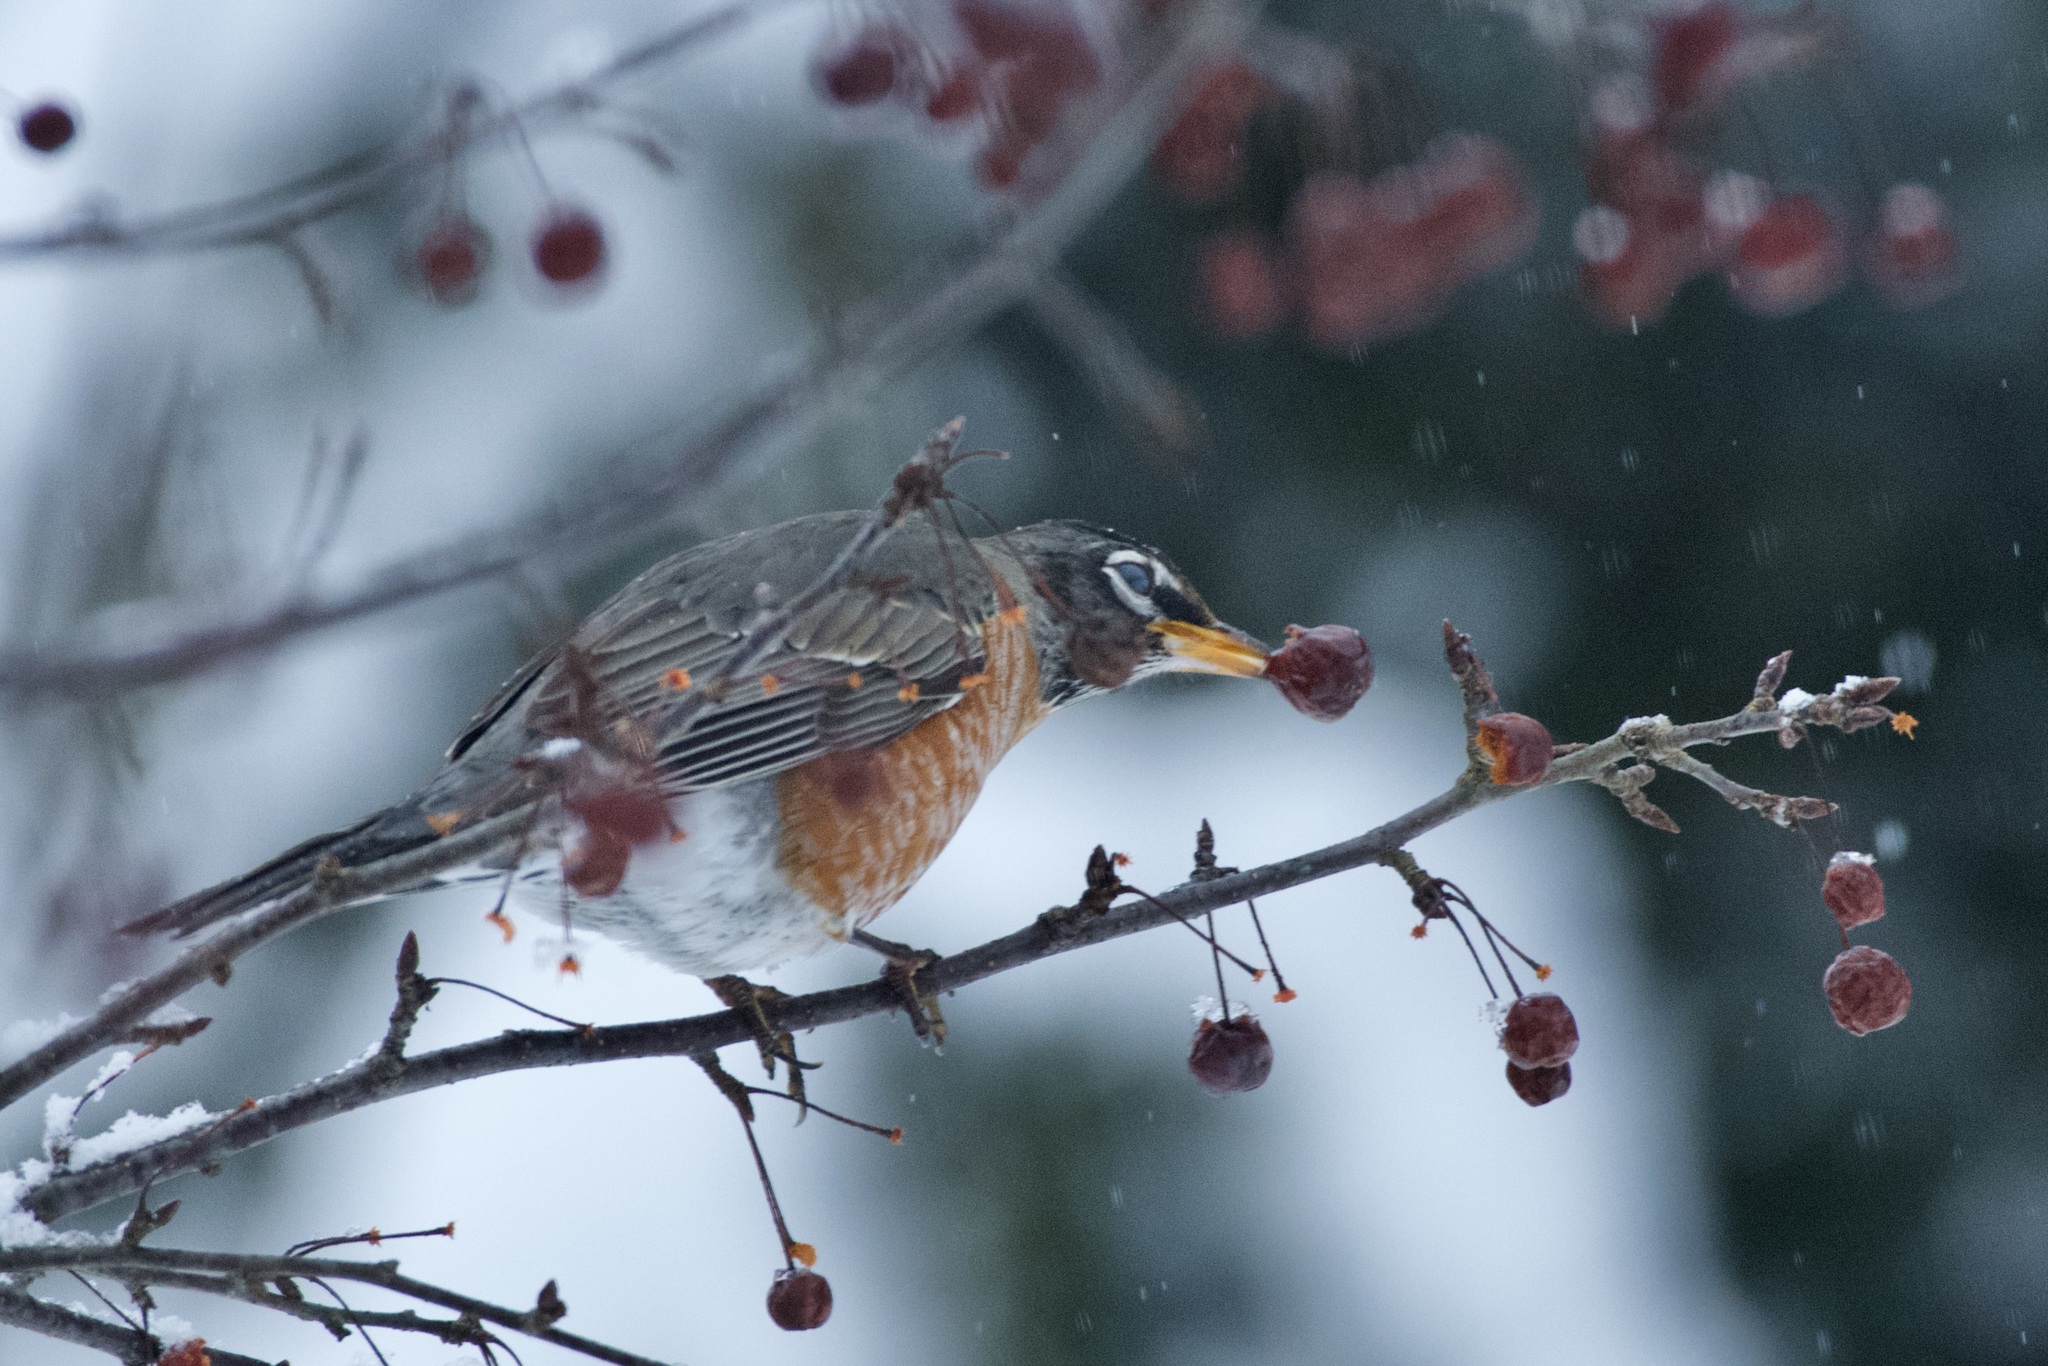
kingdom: Animalia
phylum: Chordata
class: Aves
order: Passeriformes
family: Turdidae
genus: Turdus
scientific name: Turdus migratorius
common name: American robin
